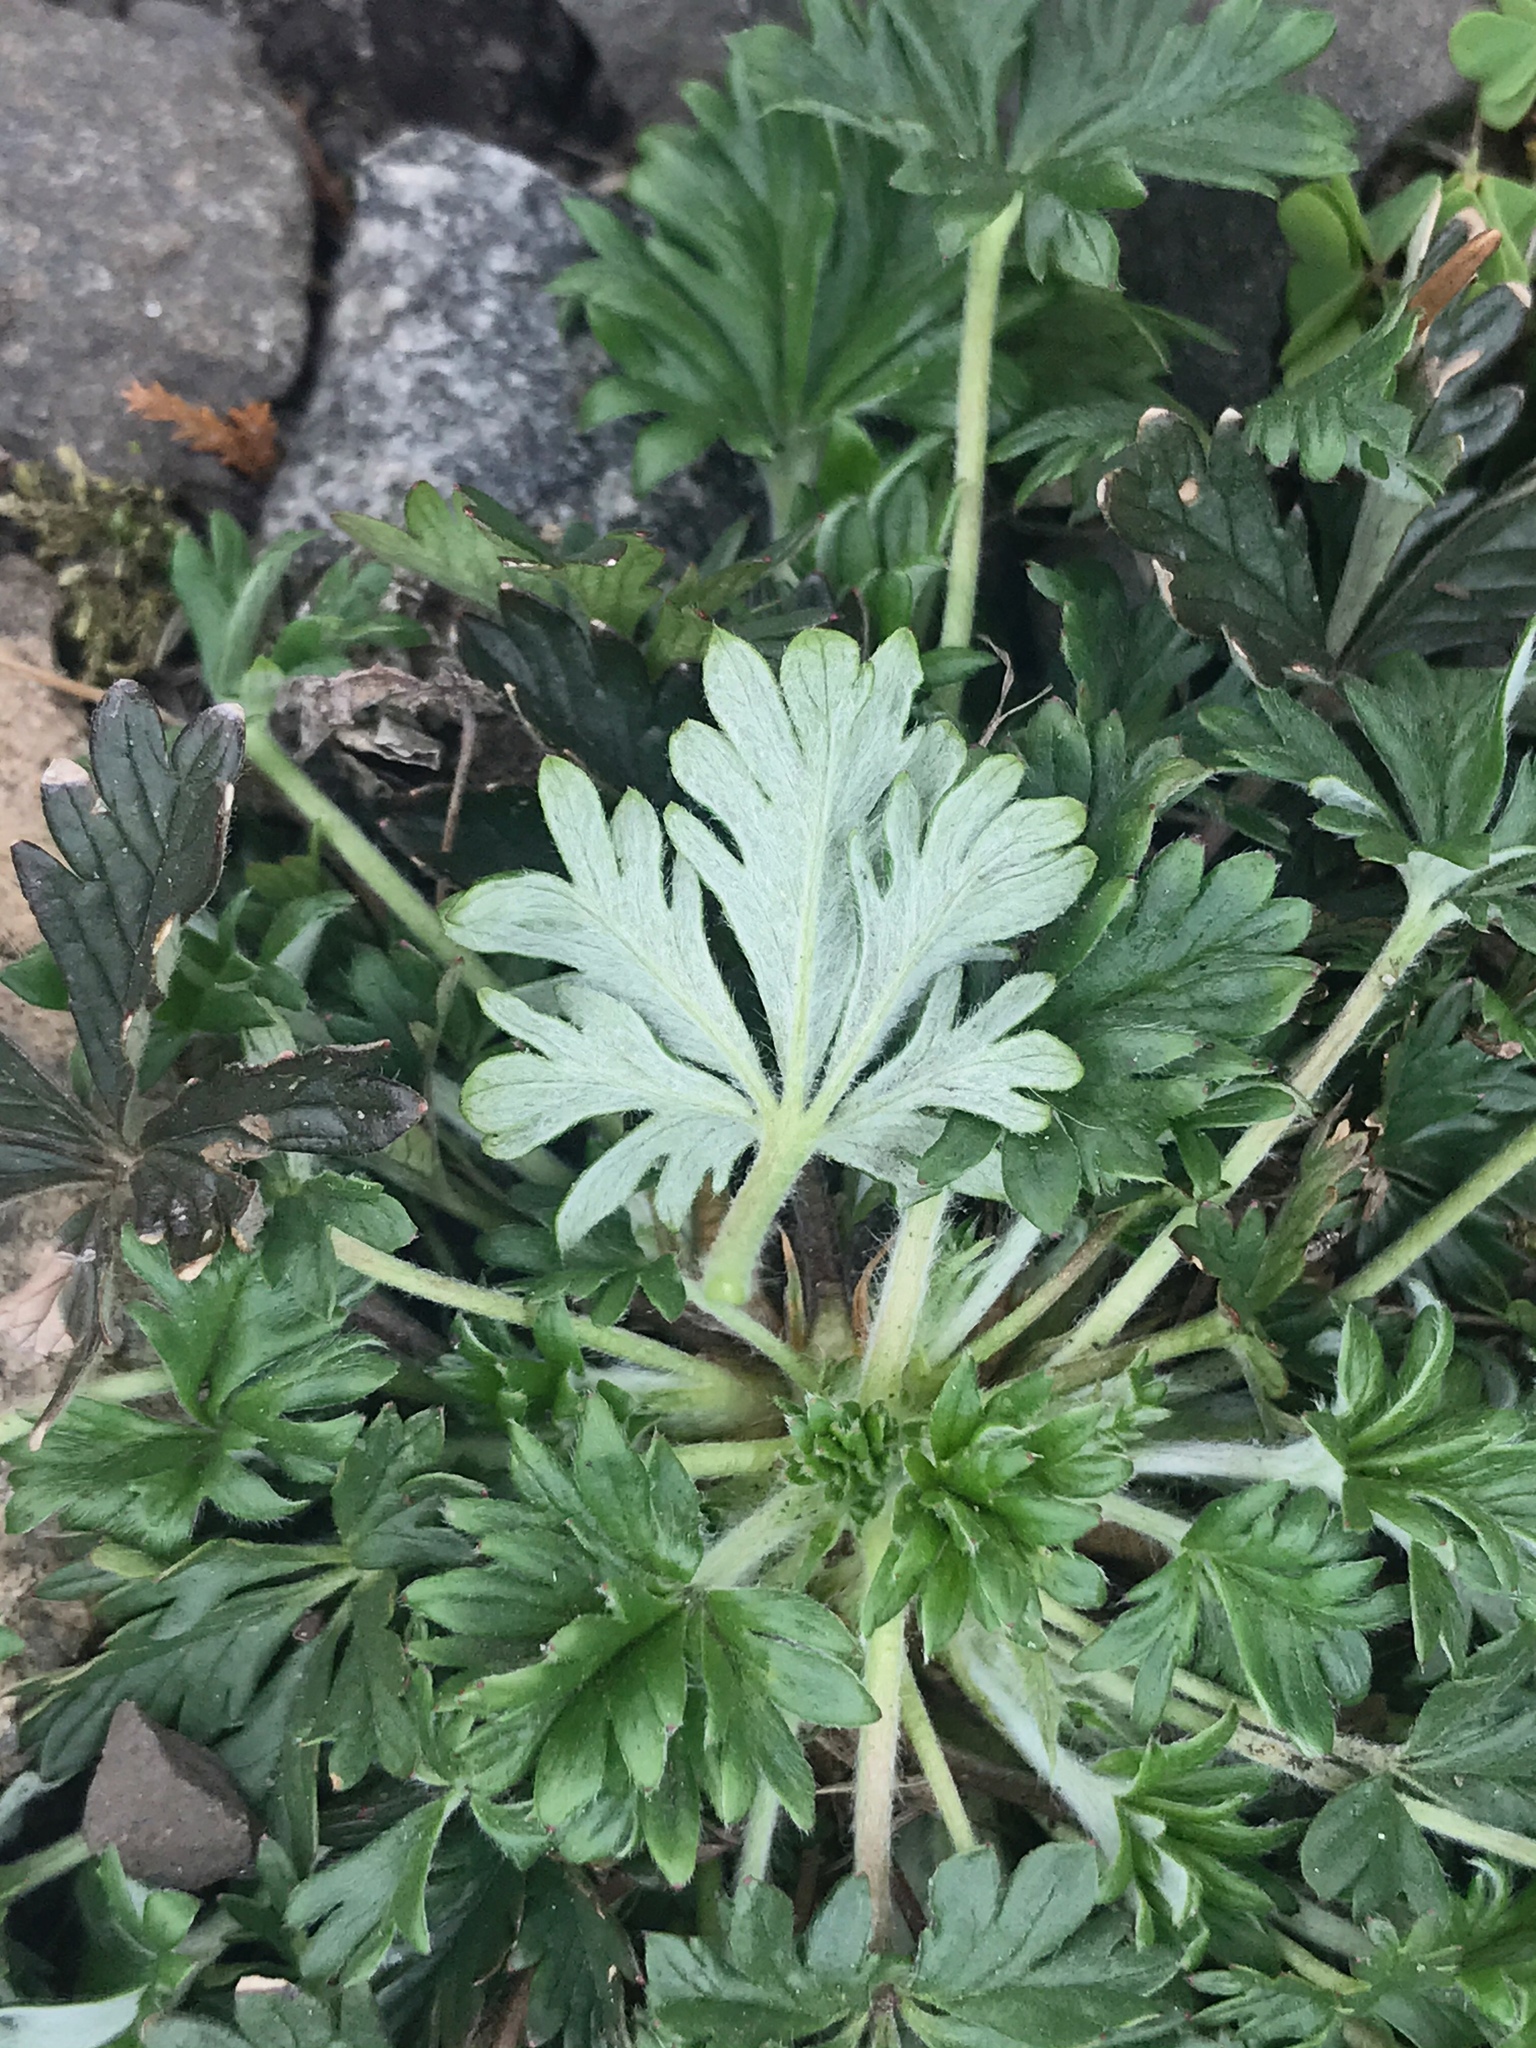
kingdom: Plantae
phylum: Tracheophyta
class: Magnoliopsida
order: Rosales
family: Rosaceae
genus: Potentilla
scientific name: Potentilla argentea
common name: Hoary cinquefoil
